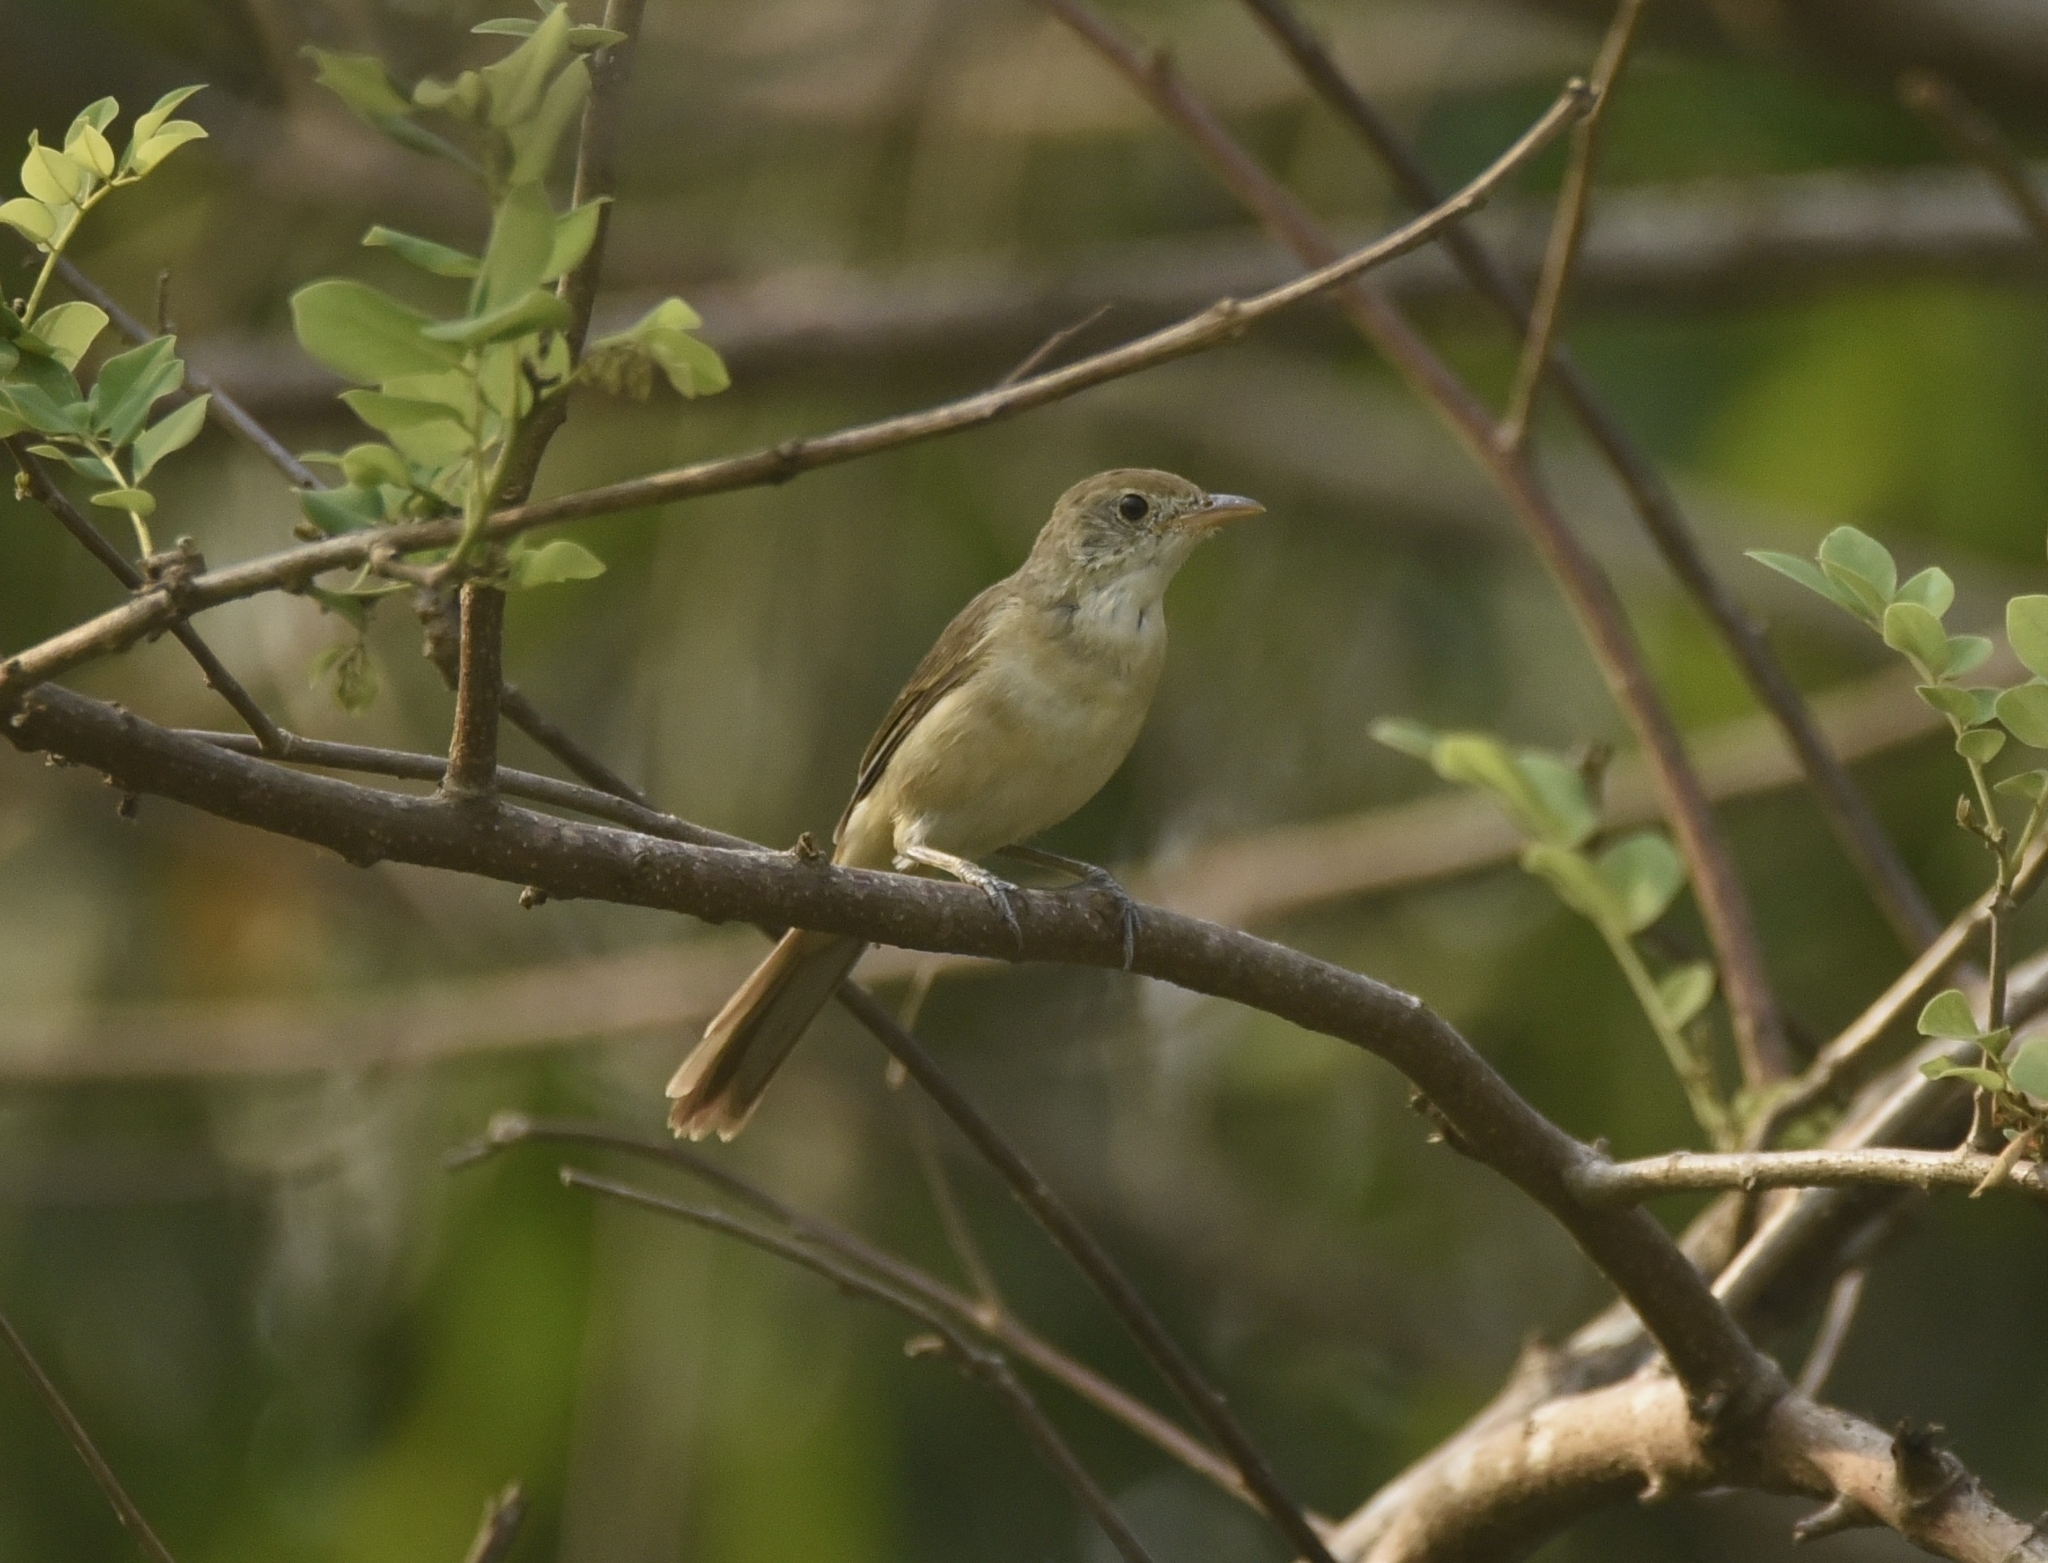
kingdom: Animalia
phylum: Chordata
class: Aves
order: Passeriformes
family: Acrocephalidae
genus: Iduna
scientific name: Iduna aedon
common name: Thick-billed warbler
